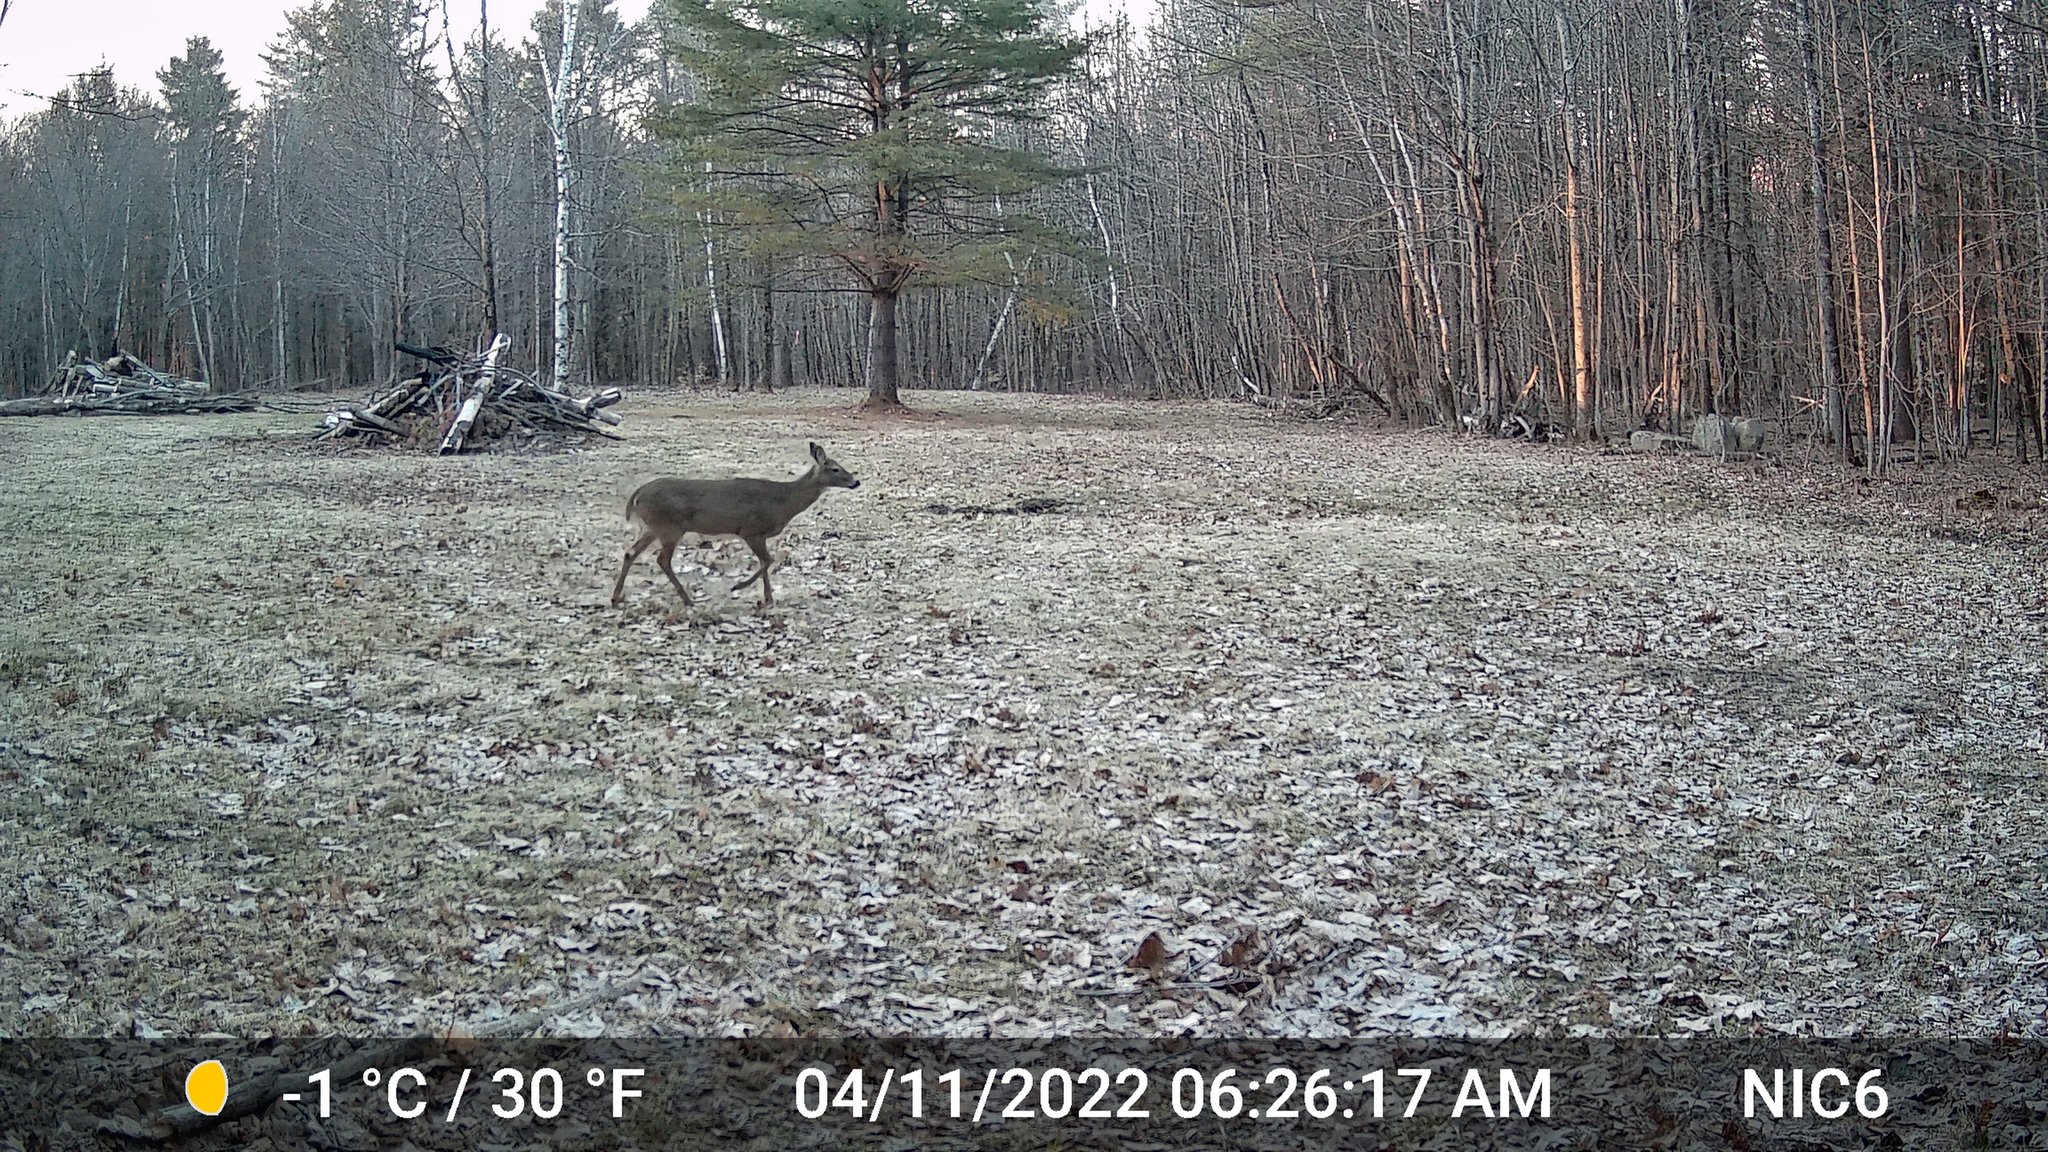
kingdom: Animalia
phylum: Chordata
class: Mammalia
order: Artiodactyla
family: Cervidae
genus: Odocoileus
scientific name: Odocoileus virginianus
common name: White-tailed deer
